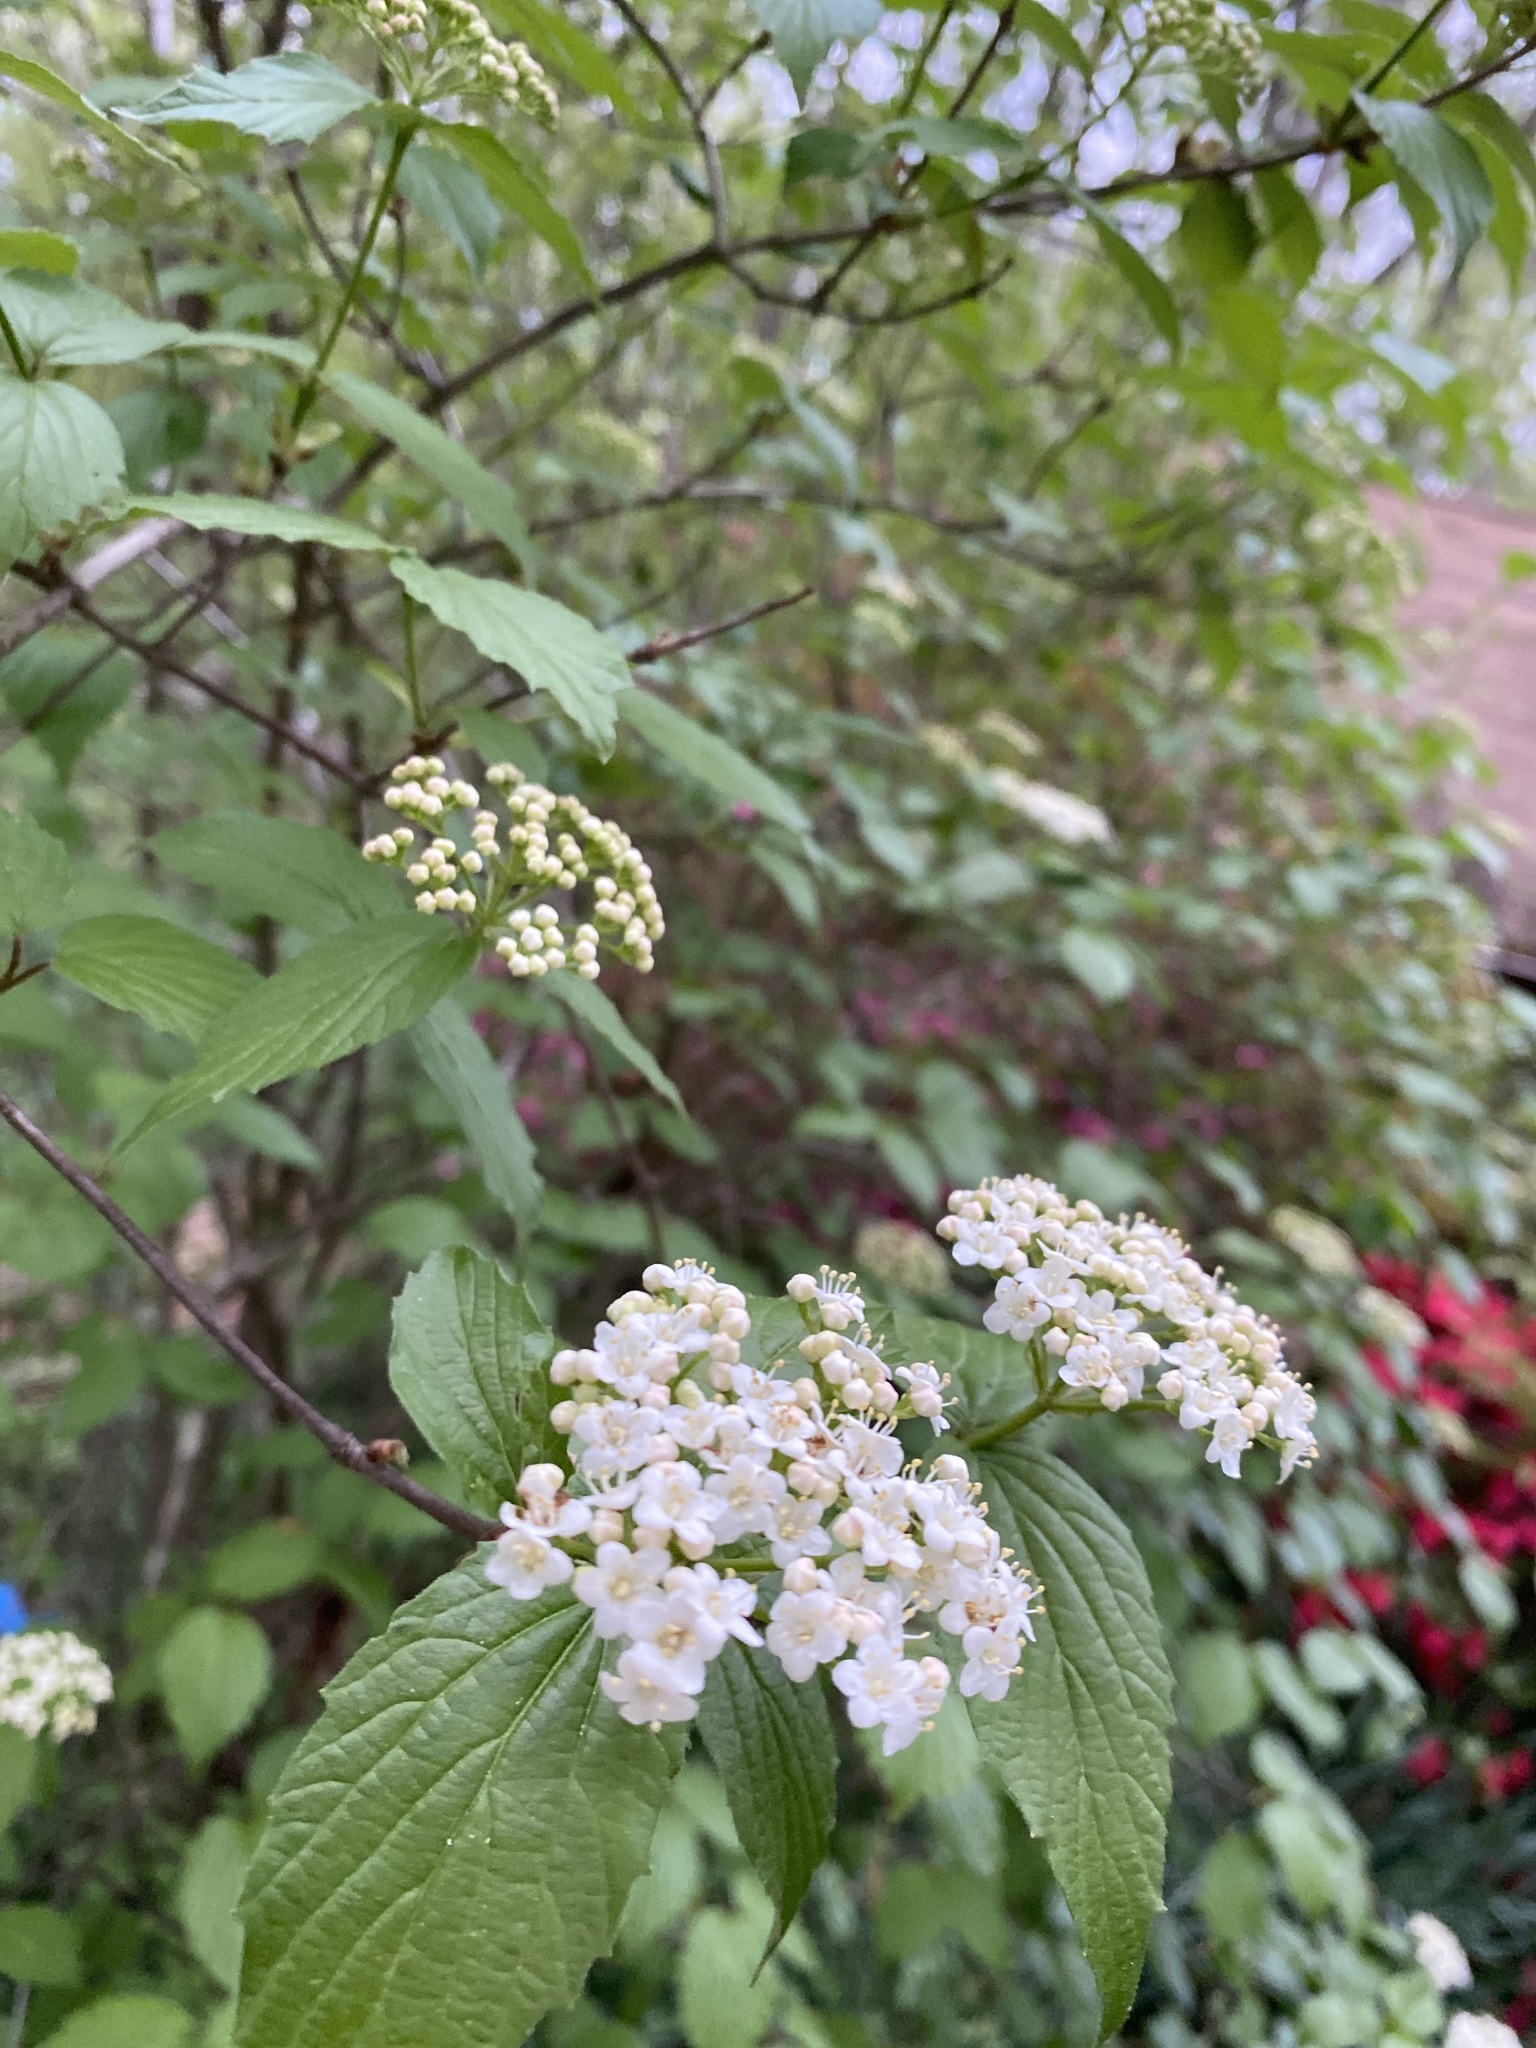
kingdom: Plantae
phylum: Tracheophyta
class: Magnoliopsida
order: Dipsacales
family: Viburnaceae
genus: Viburnum
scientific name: Viburnum rafinesqueanum
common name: Downy arrow-wood
